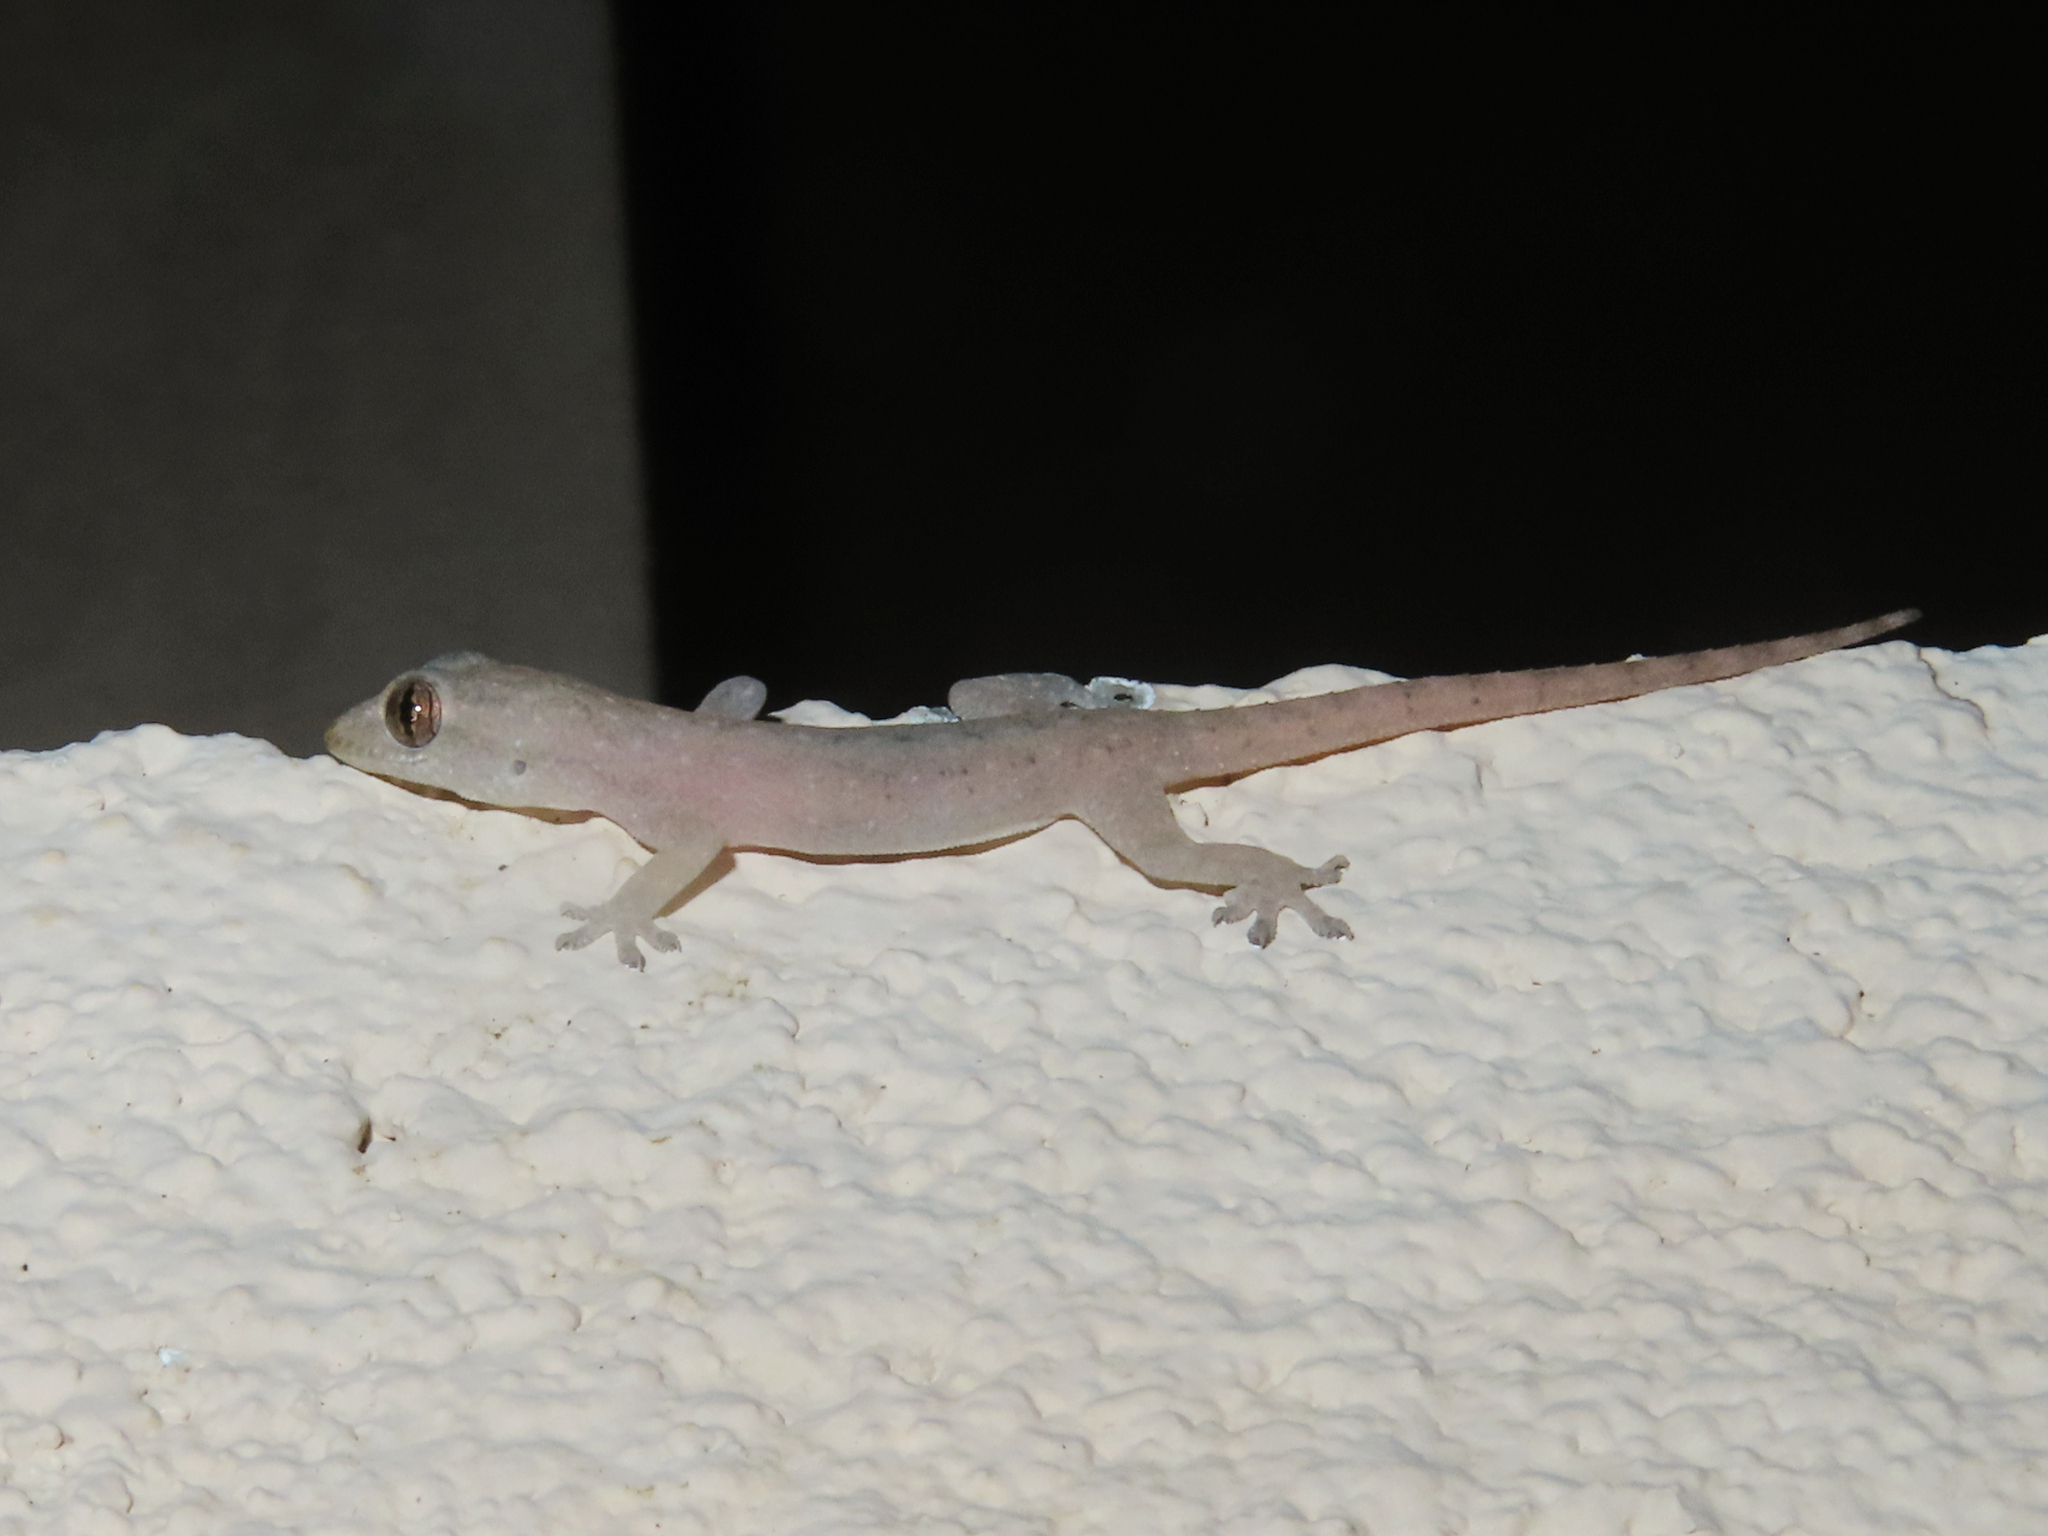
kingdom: Animalia
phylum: Chordata
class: Squamata
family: Gekkonidae
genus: Hemidactylus
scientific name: Hemidactylus frenatus
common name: Common house gecko
